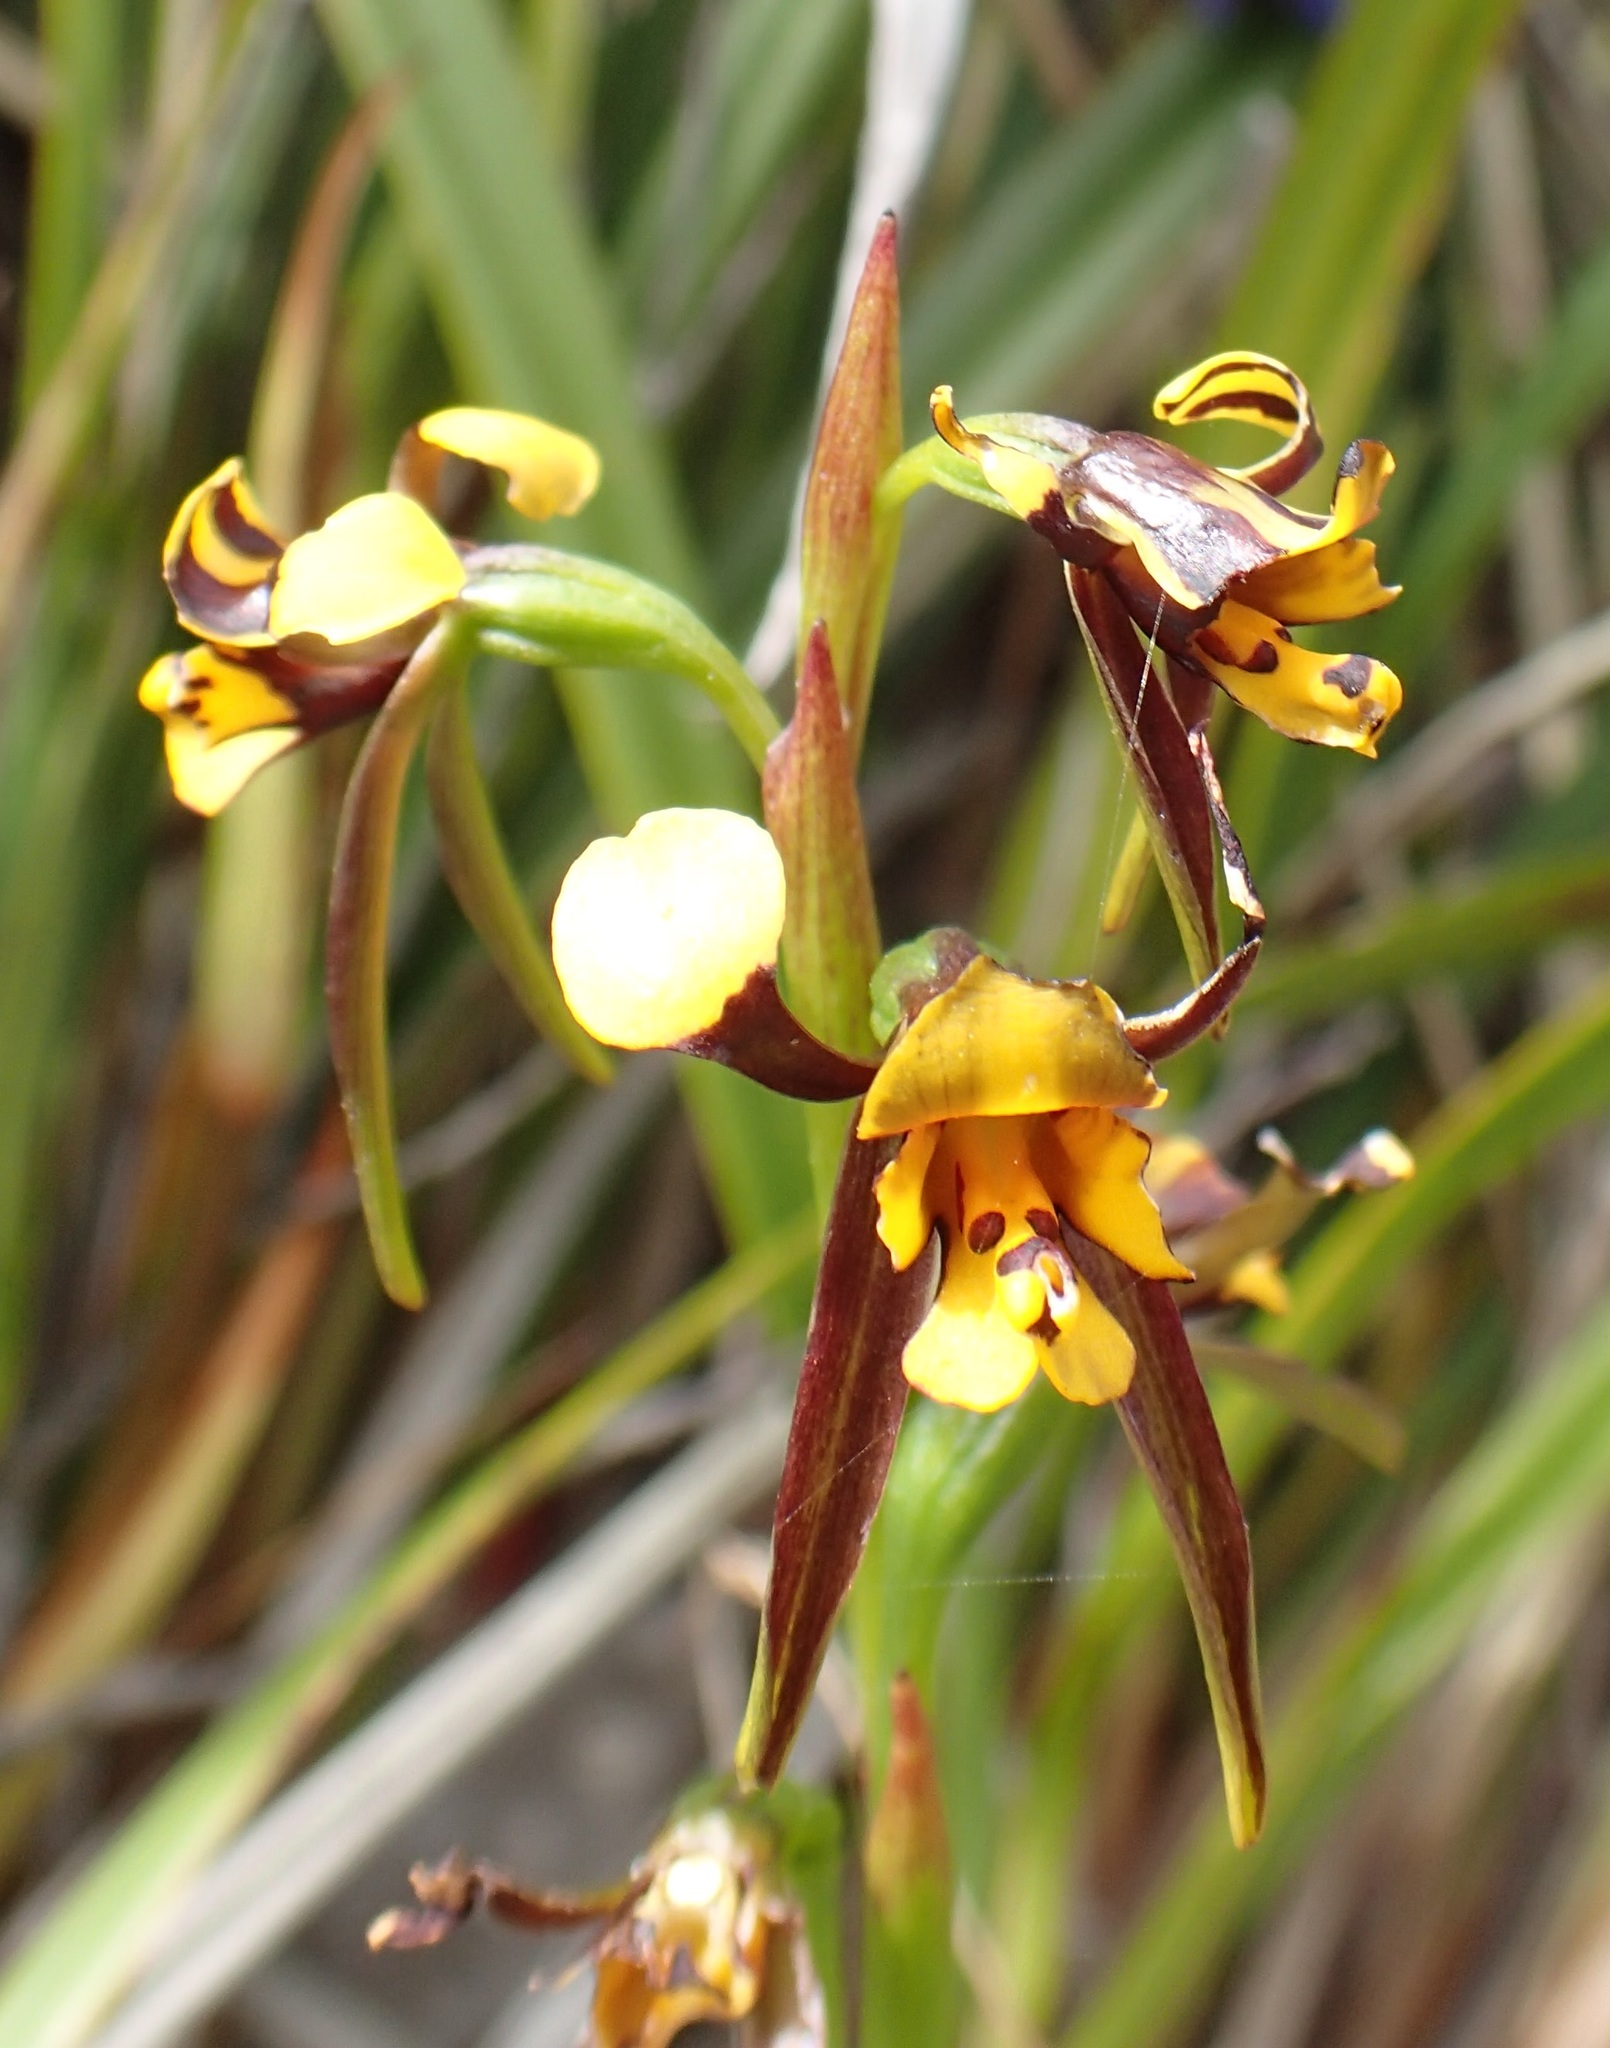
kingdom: Plantae
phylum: Tracheophyta
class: Liliopsida
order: Asparagales
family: Orchidaceae
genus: Diuris
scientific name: Diuris palustris
